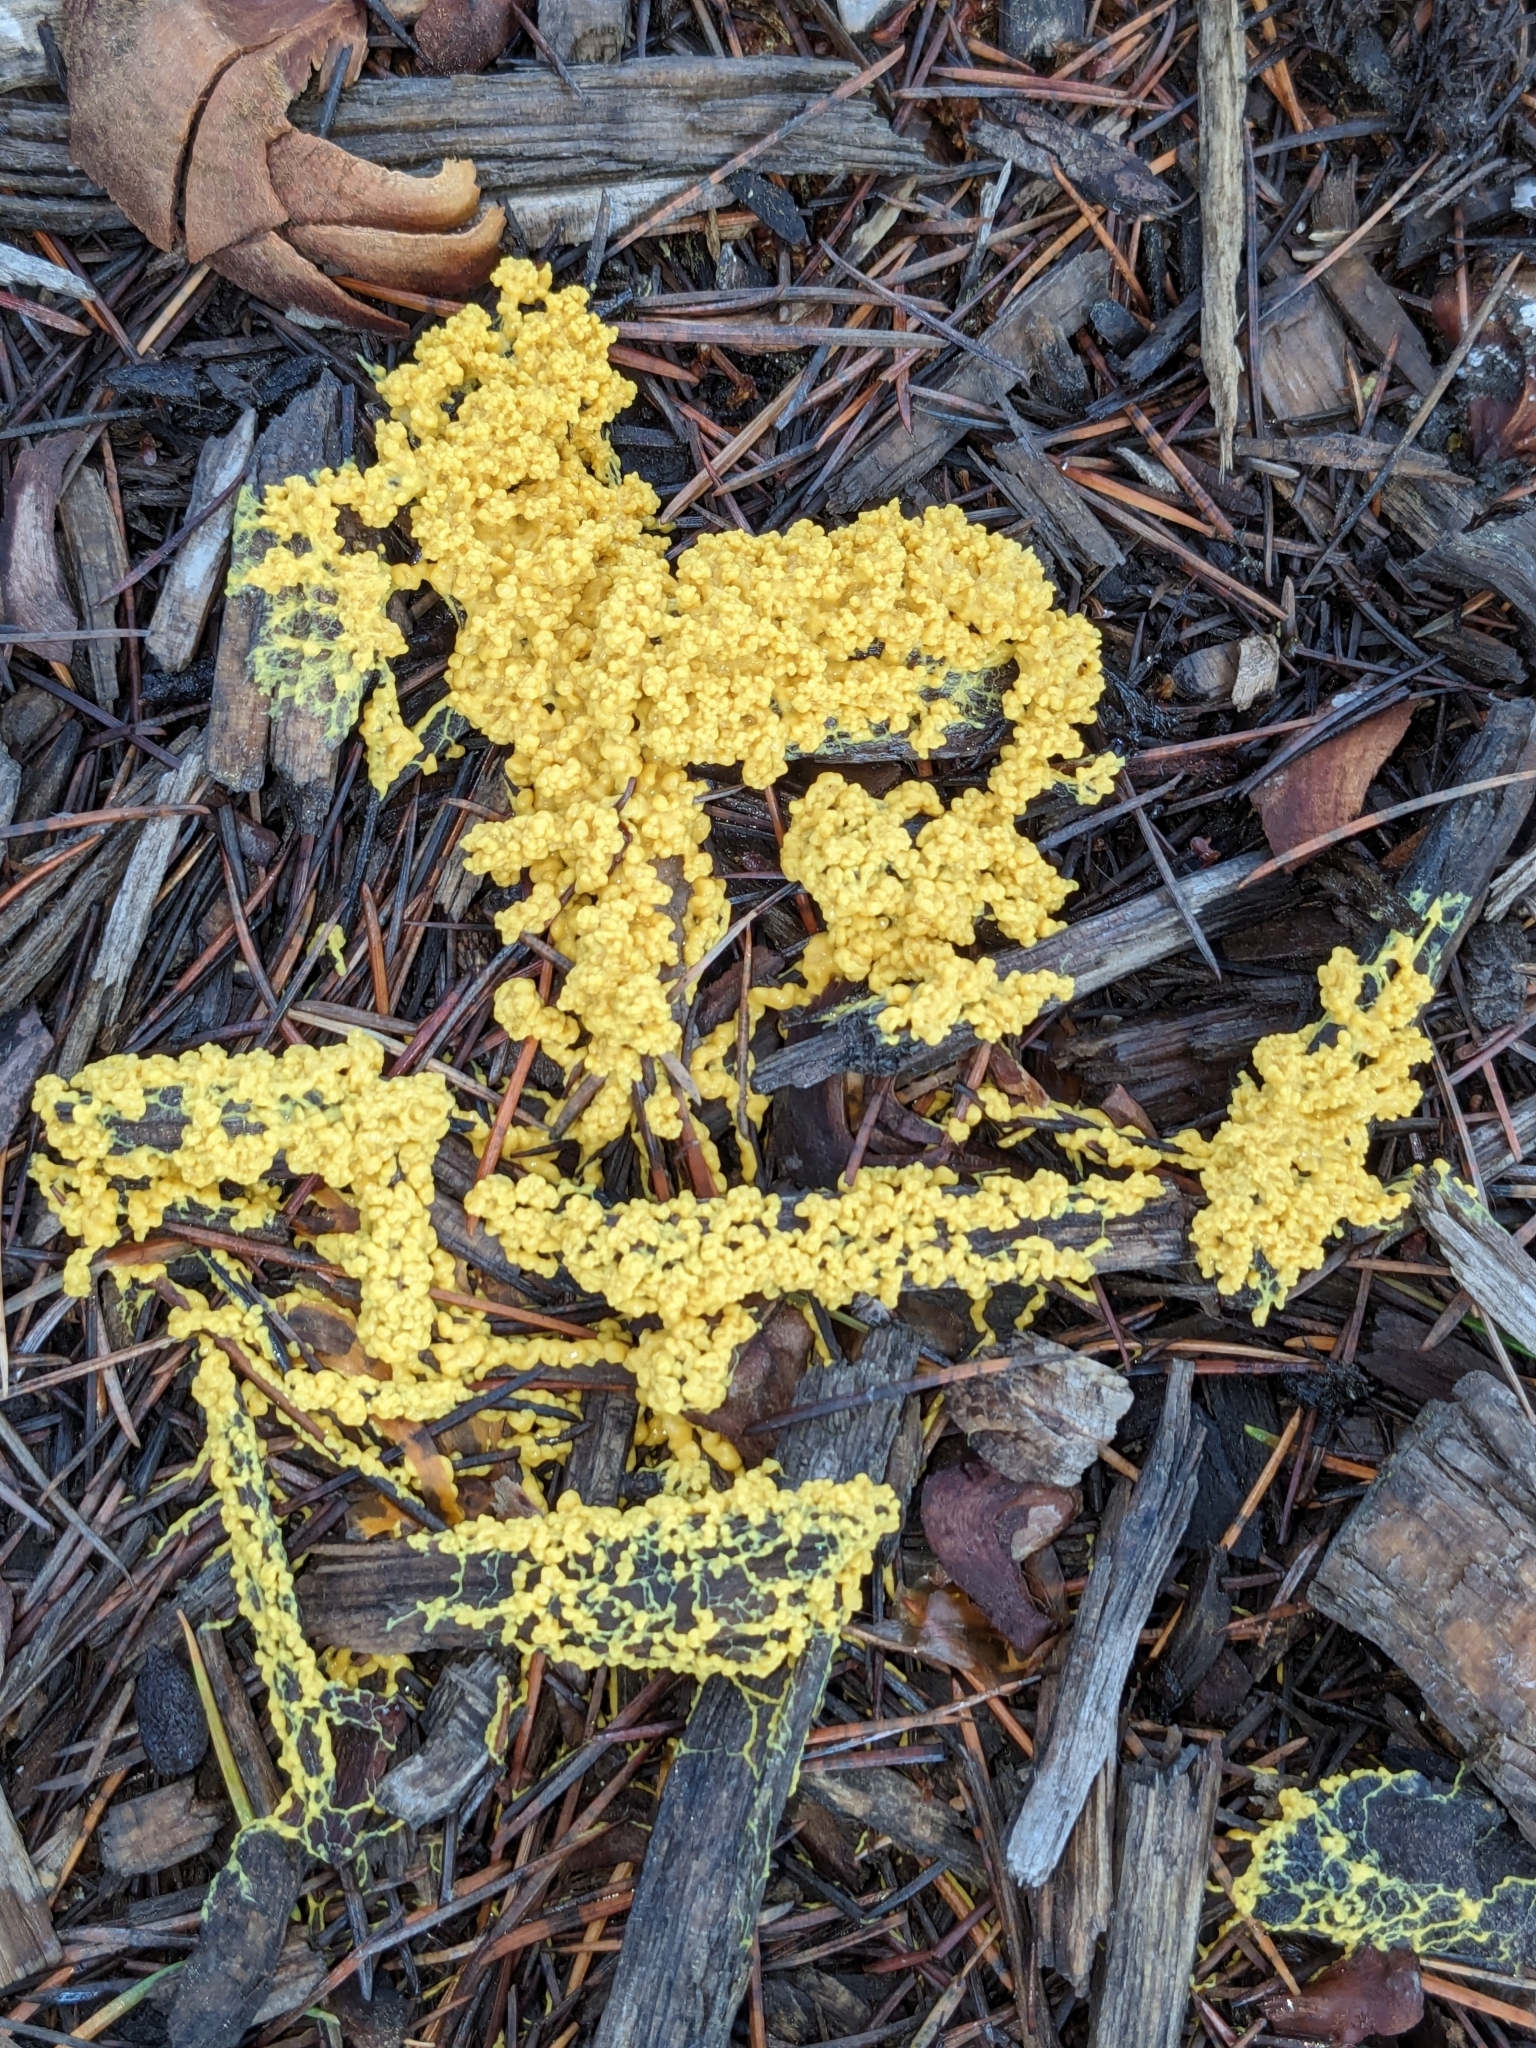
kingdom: Protozoa
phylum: Mycetozoa
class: Myxomycetes
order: Physarales
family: Physaraceae
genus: Fuligo
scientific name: Fuligo septica
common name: Dog vomit slime mold
